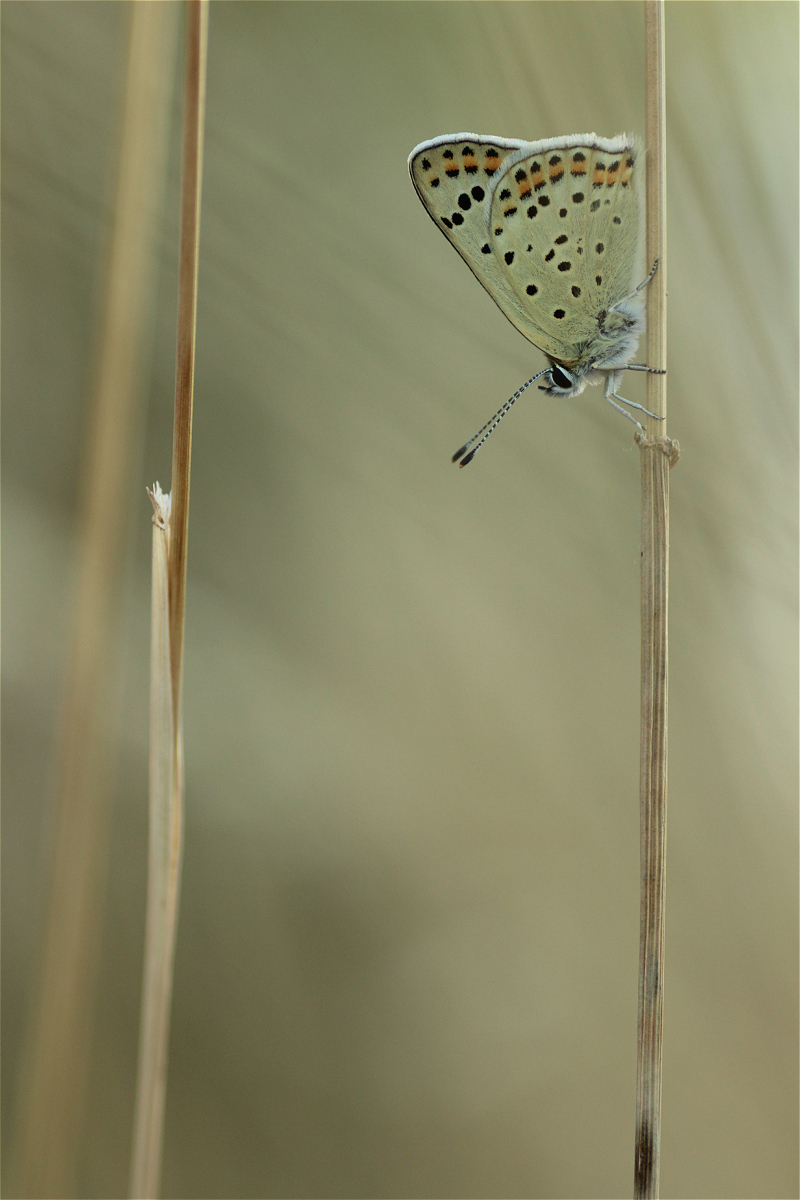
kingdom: Animalia
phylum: Arthropoda
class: Insecta
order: Lepidoptera
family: Lycaenidae
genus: Loweia
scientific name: Loweia tityrus
